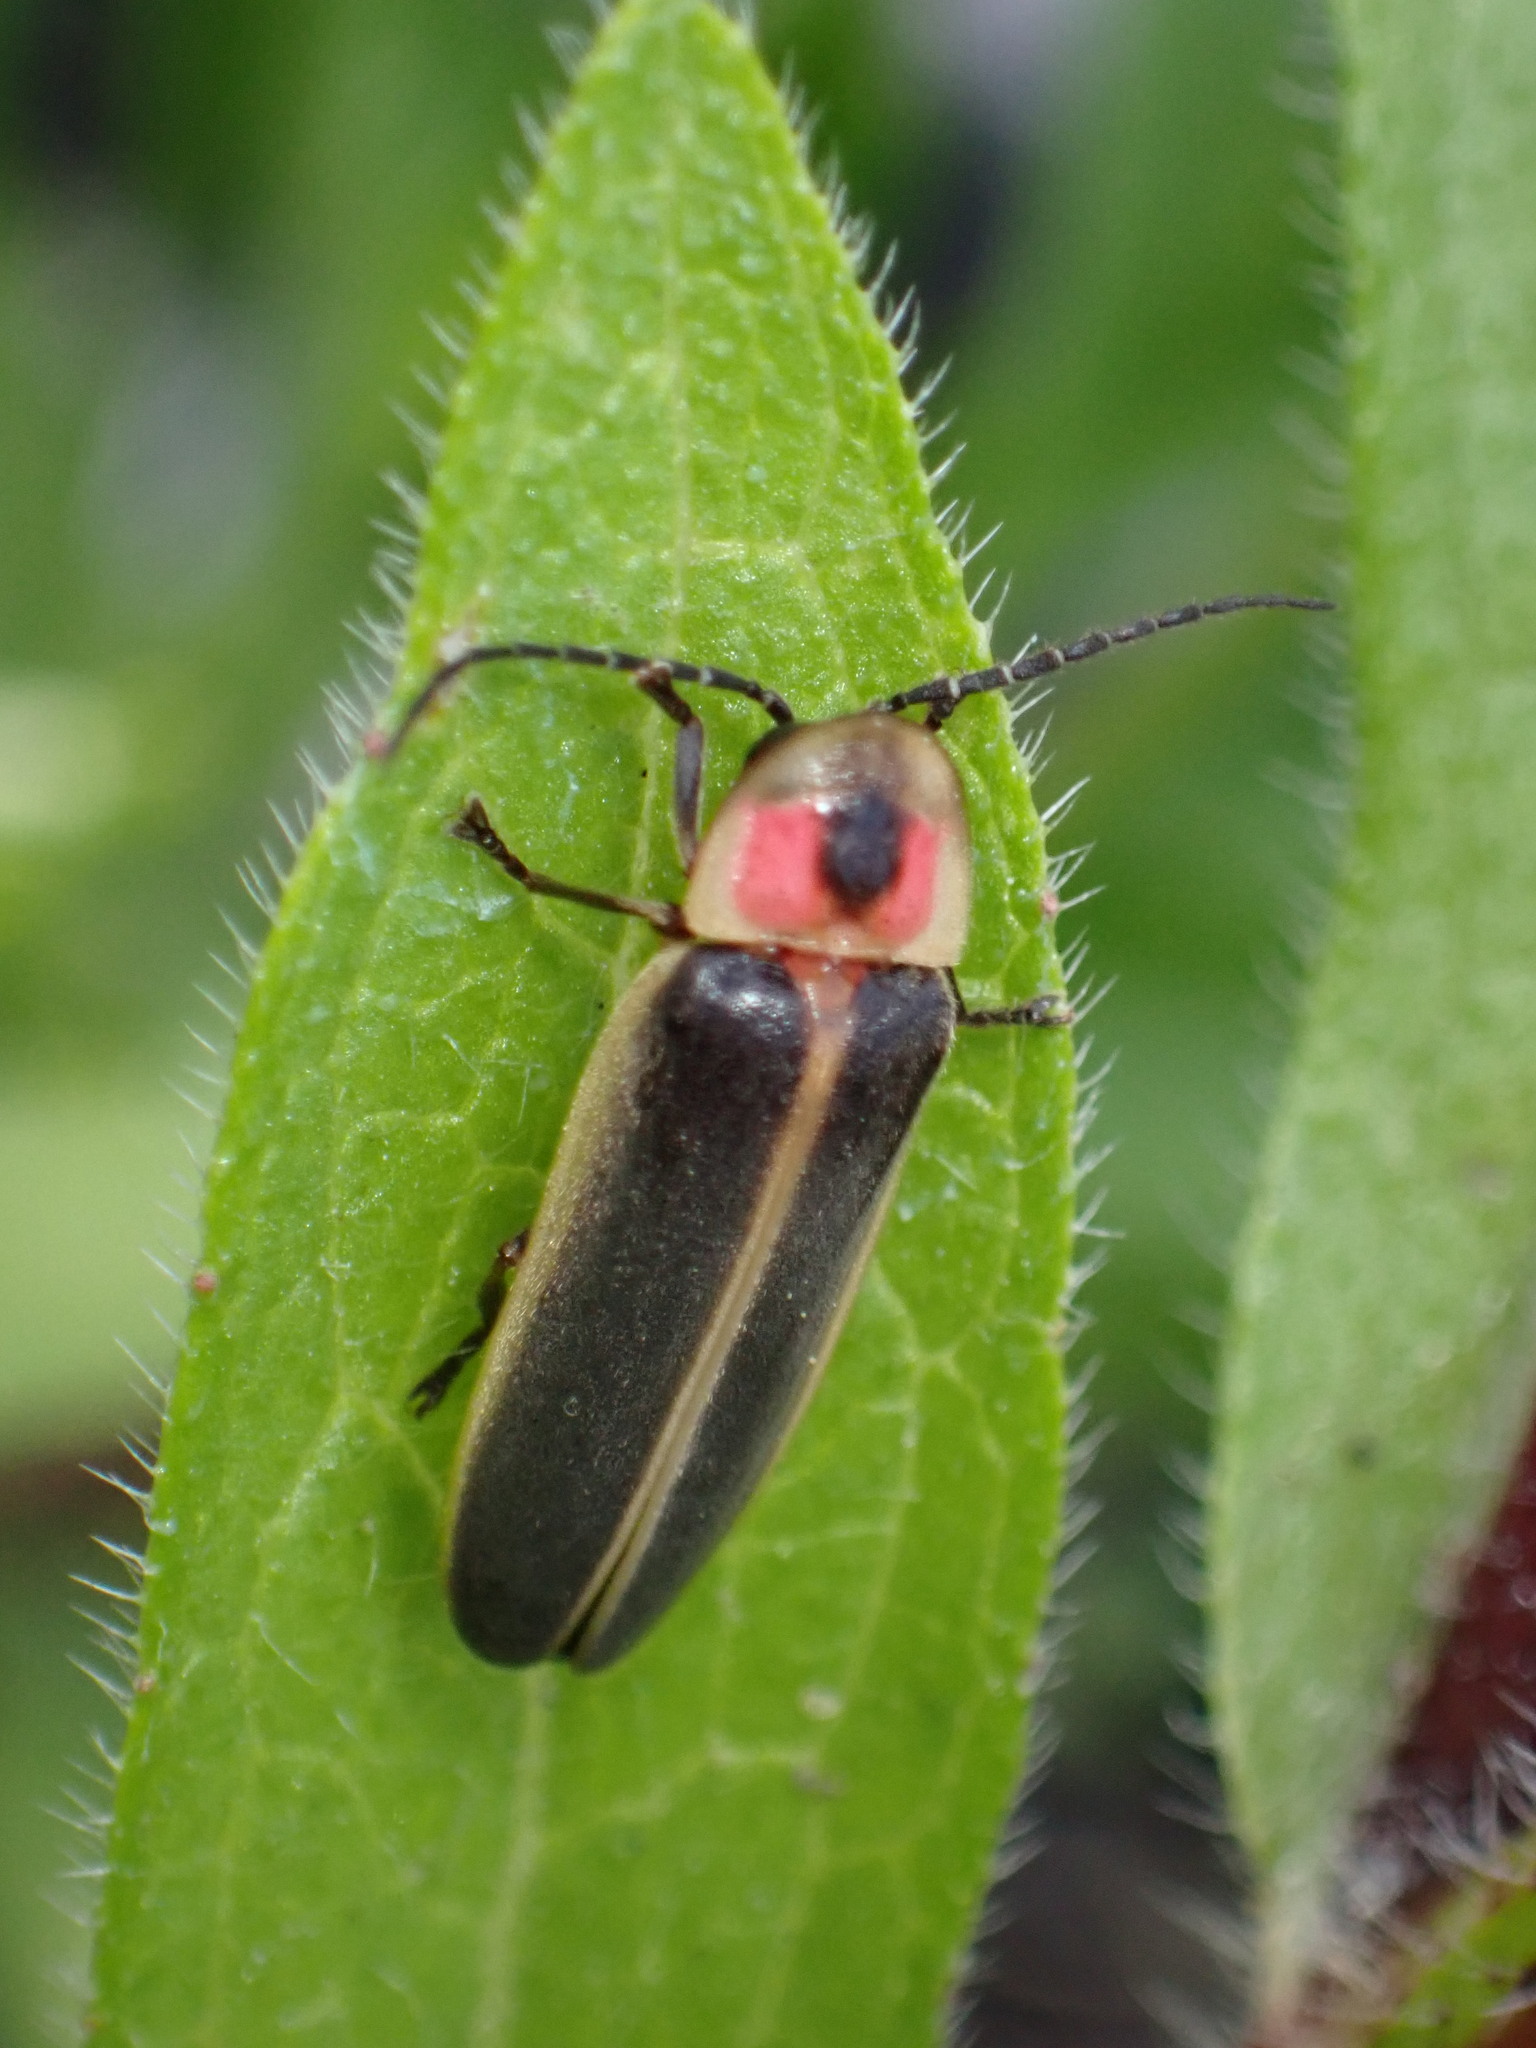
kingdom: Animalia
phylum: Arthropoda
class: Insecta
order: Coleoptera
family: Lampyridae
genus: Photinus
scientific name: Photinus pyralis
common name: Big dipper firefly
